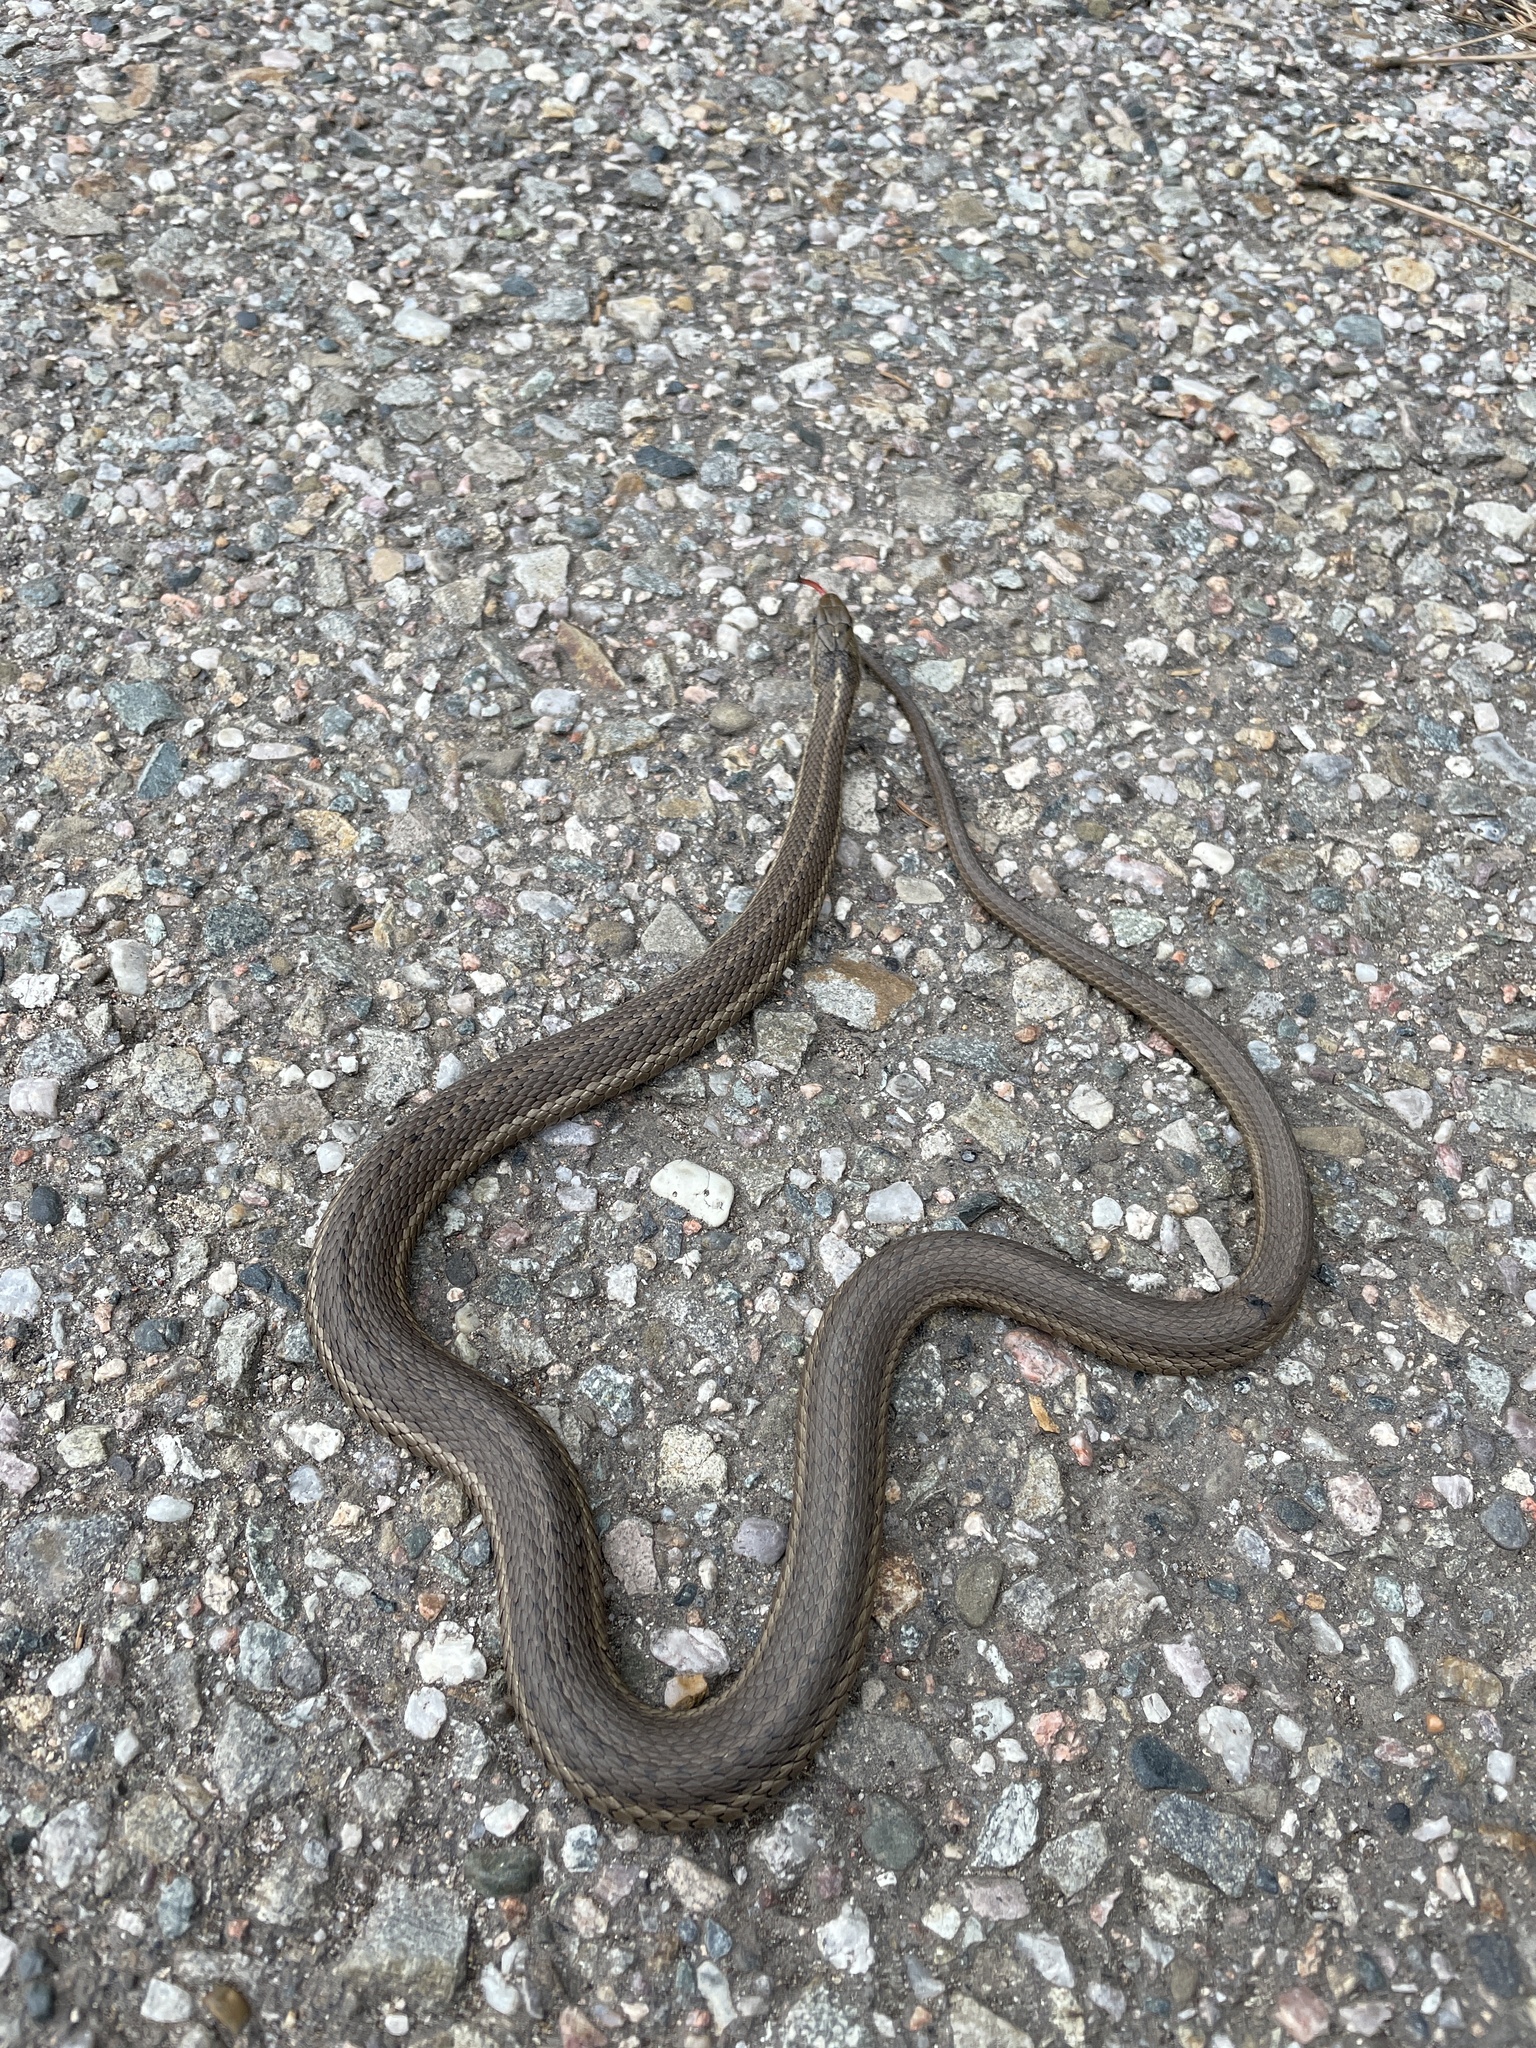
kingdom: Animalia
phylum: Chordata
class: Squamata
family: Colubridae
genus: Tropidoclonion
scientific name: Tropidoclonion lineatum
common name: Lined snake
